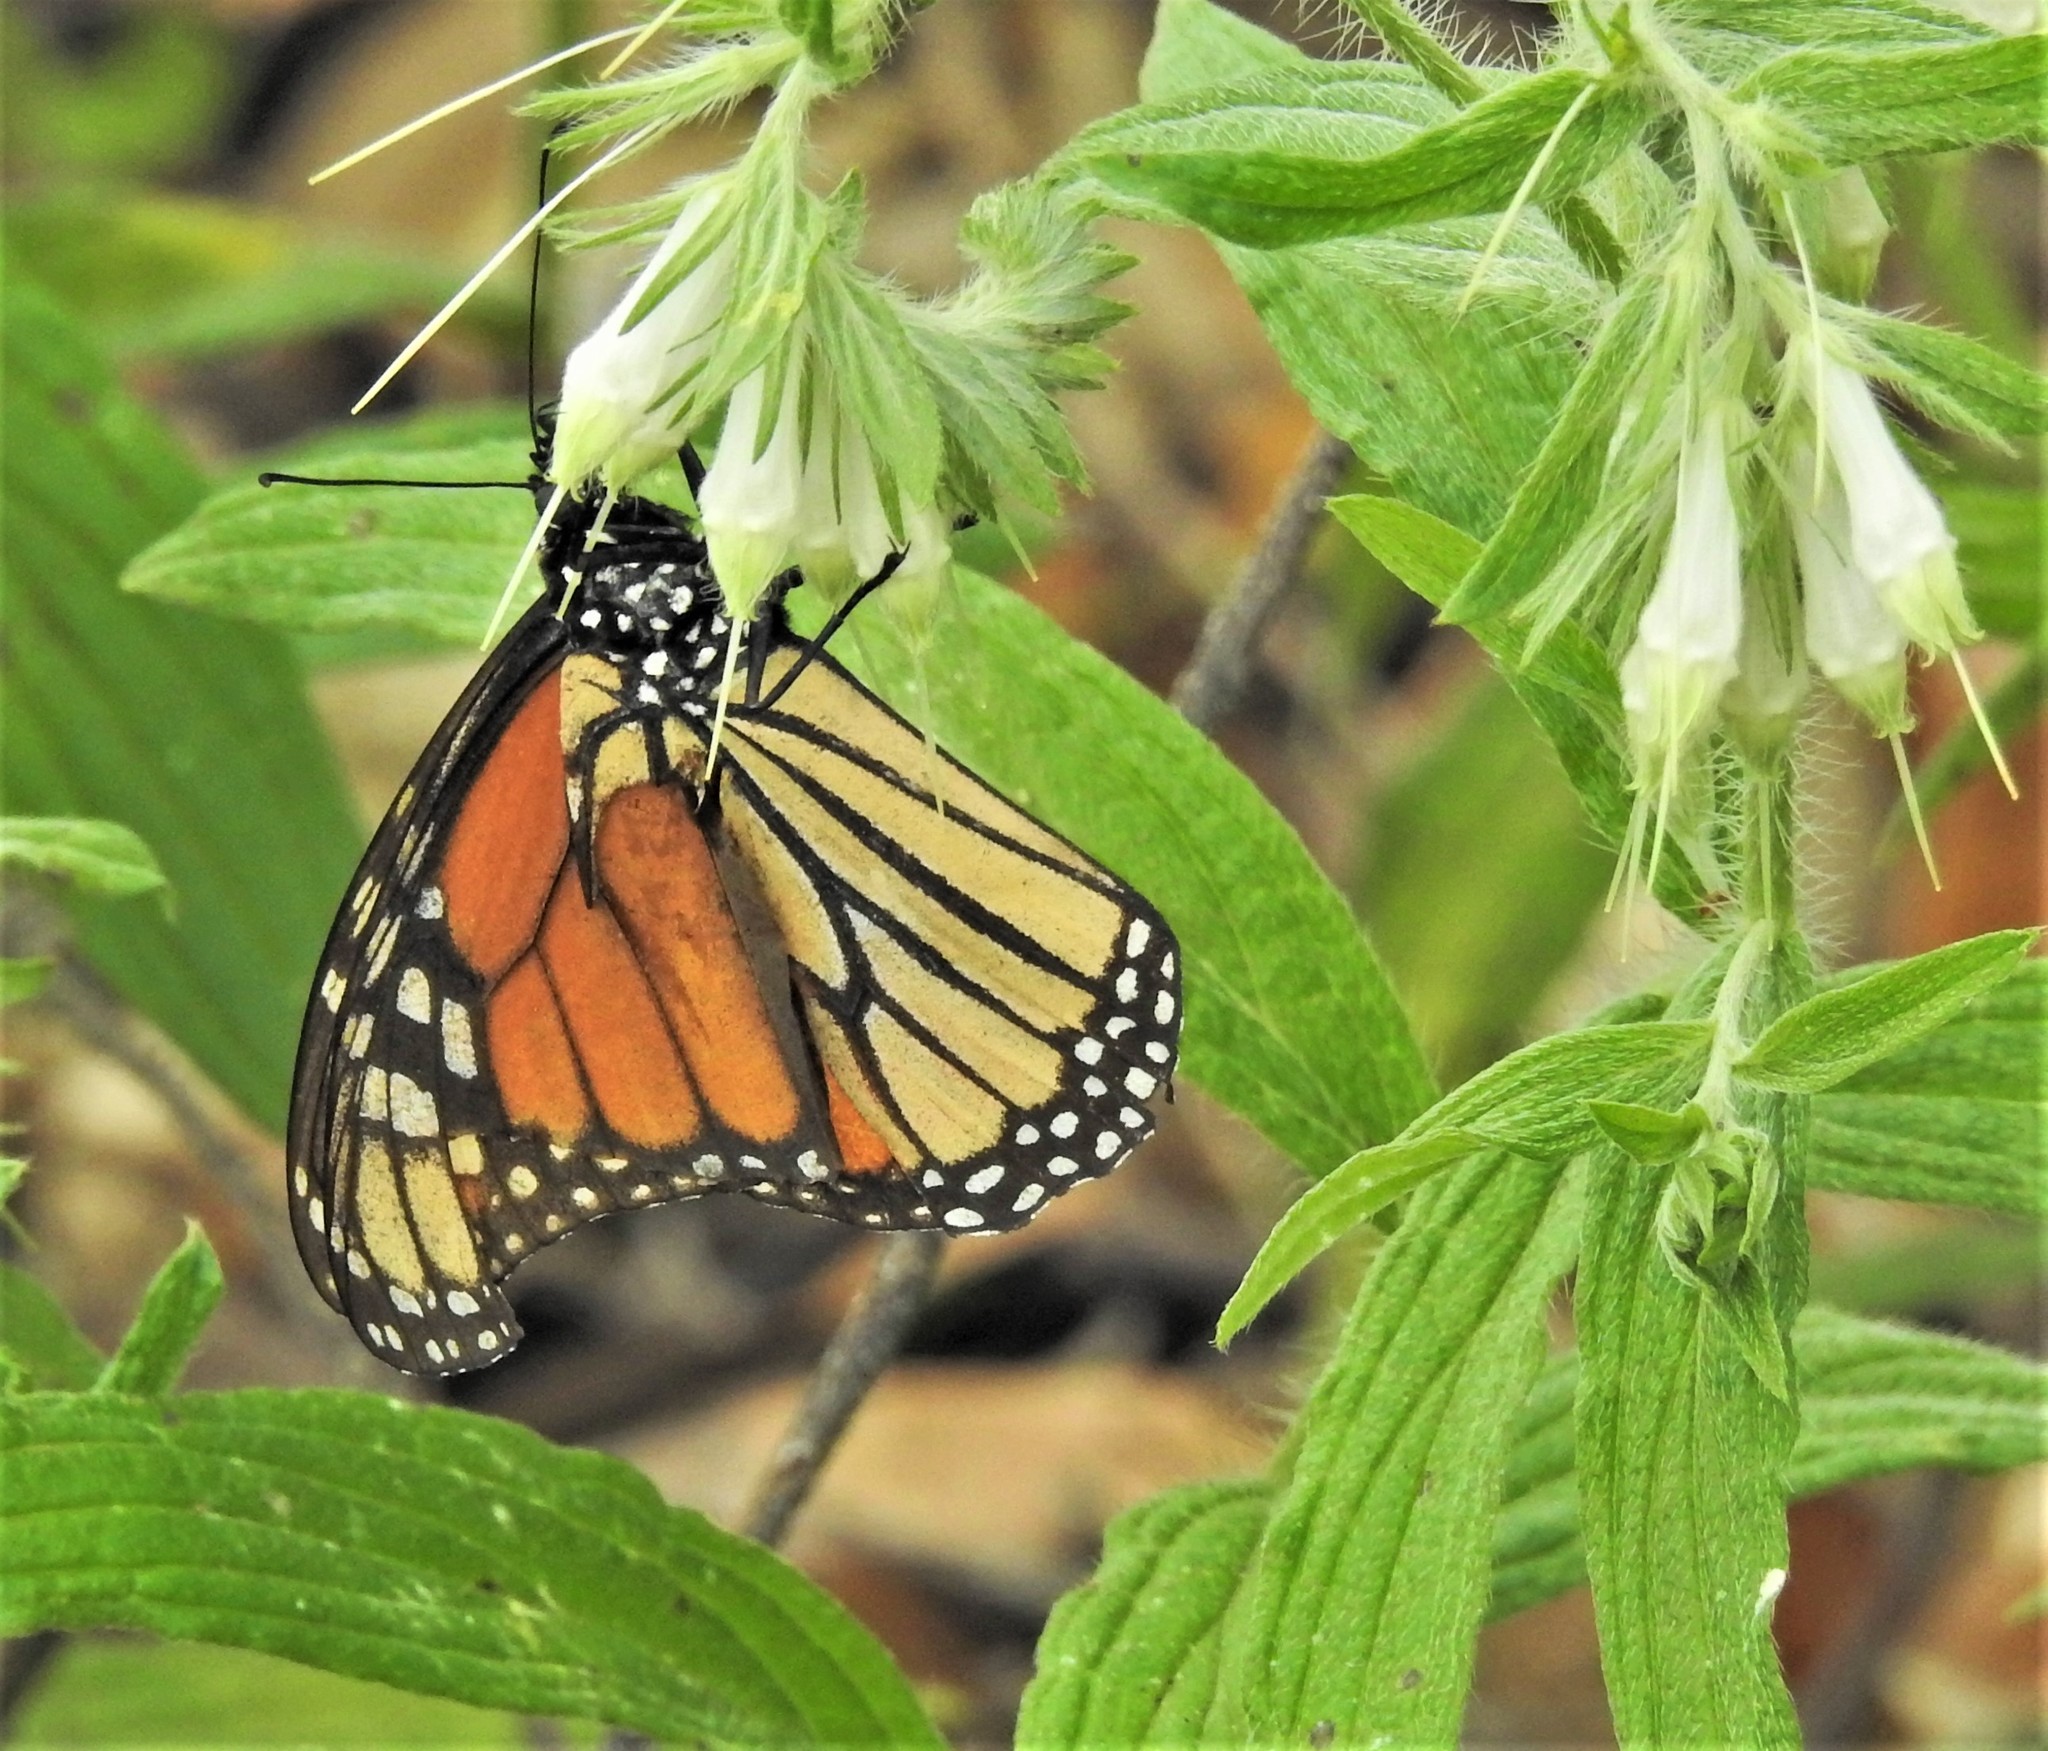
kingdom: Animalia
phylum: Arthropoda
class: Insecta
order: Lepidoptera
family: Nymphalidae
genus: Danaus
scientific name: Danaus plexippus
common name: Monarch
